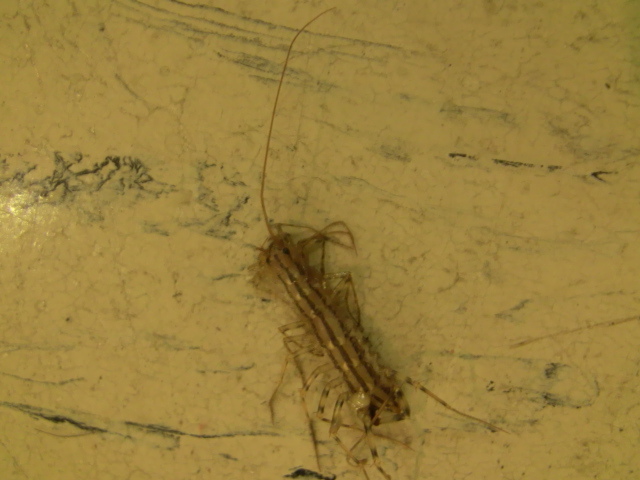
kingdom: Animalia
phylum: Arthropoda
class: Chilopoda
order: Scutigeromorpha
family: Scutigeridae
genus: Scutigera
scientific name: Scutigera coleoptrata
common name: House centipede
